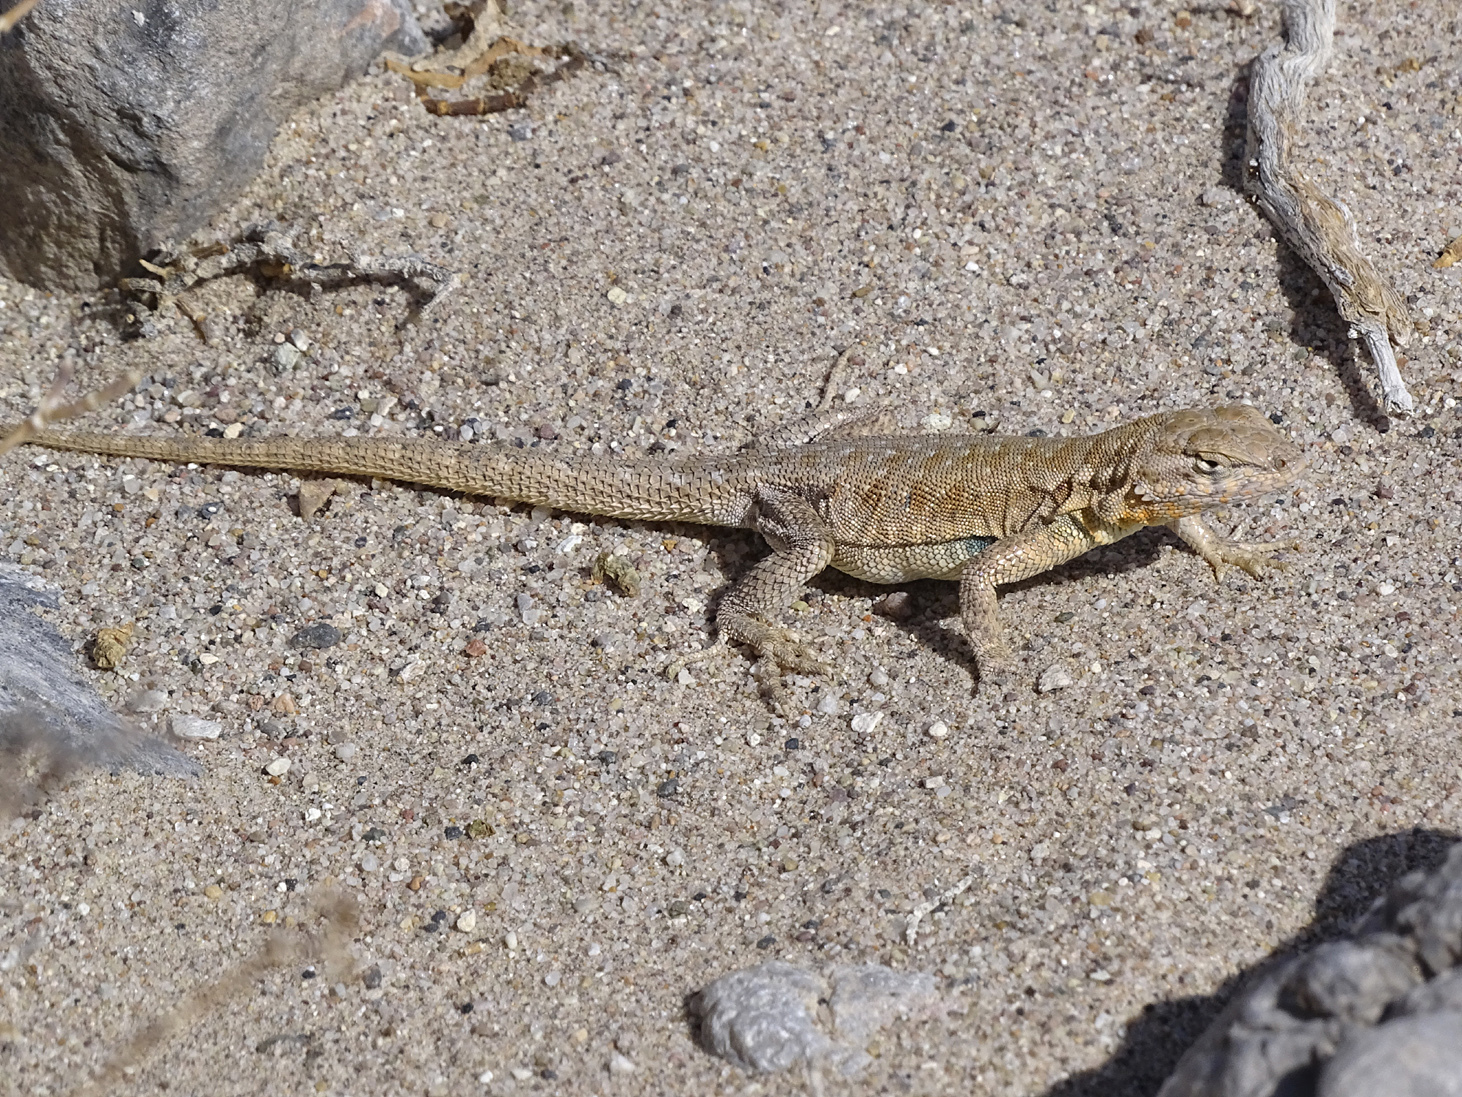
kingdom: Animalia
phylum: Chordata
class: Squamata
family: Phrynosomatidae
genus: Uta
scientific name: Uta stansburiana
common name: Side-blotched lizard
